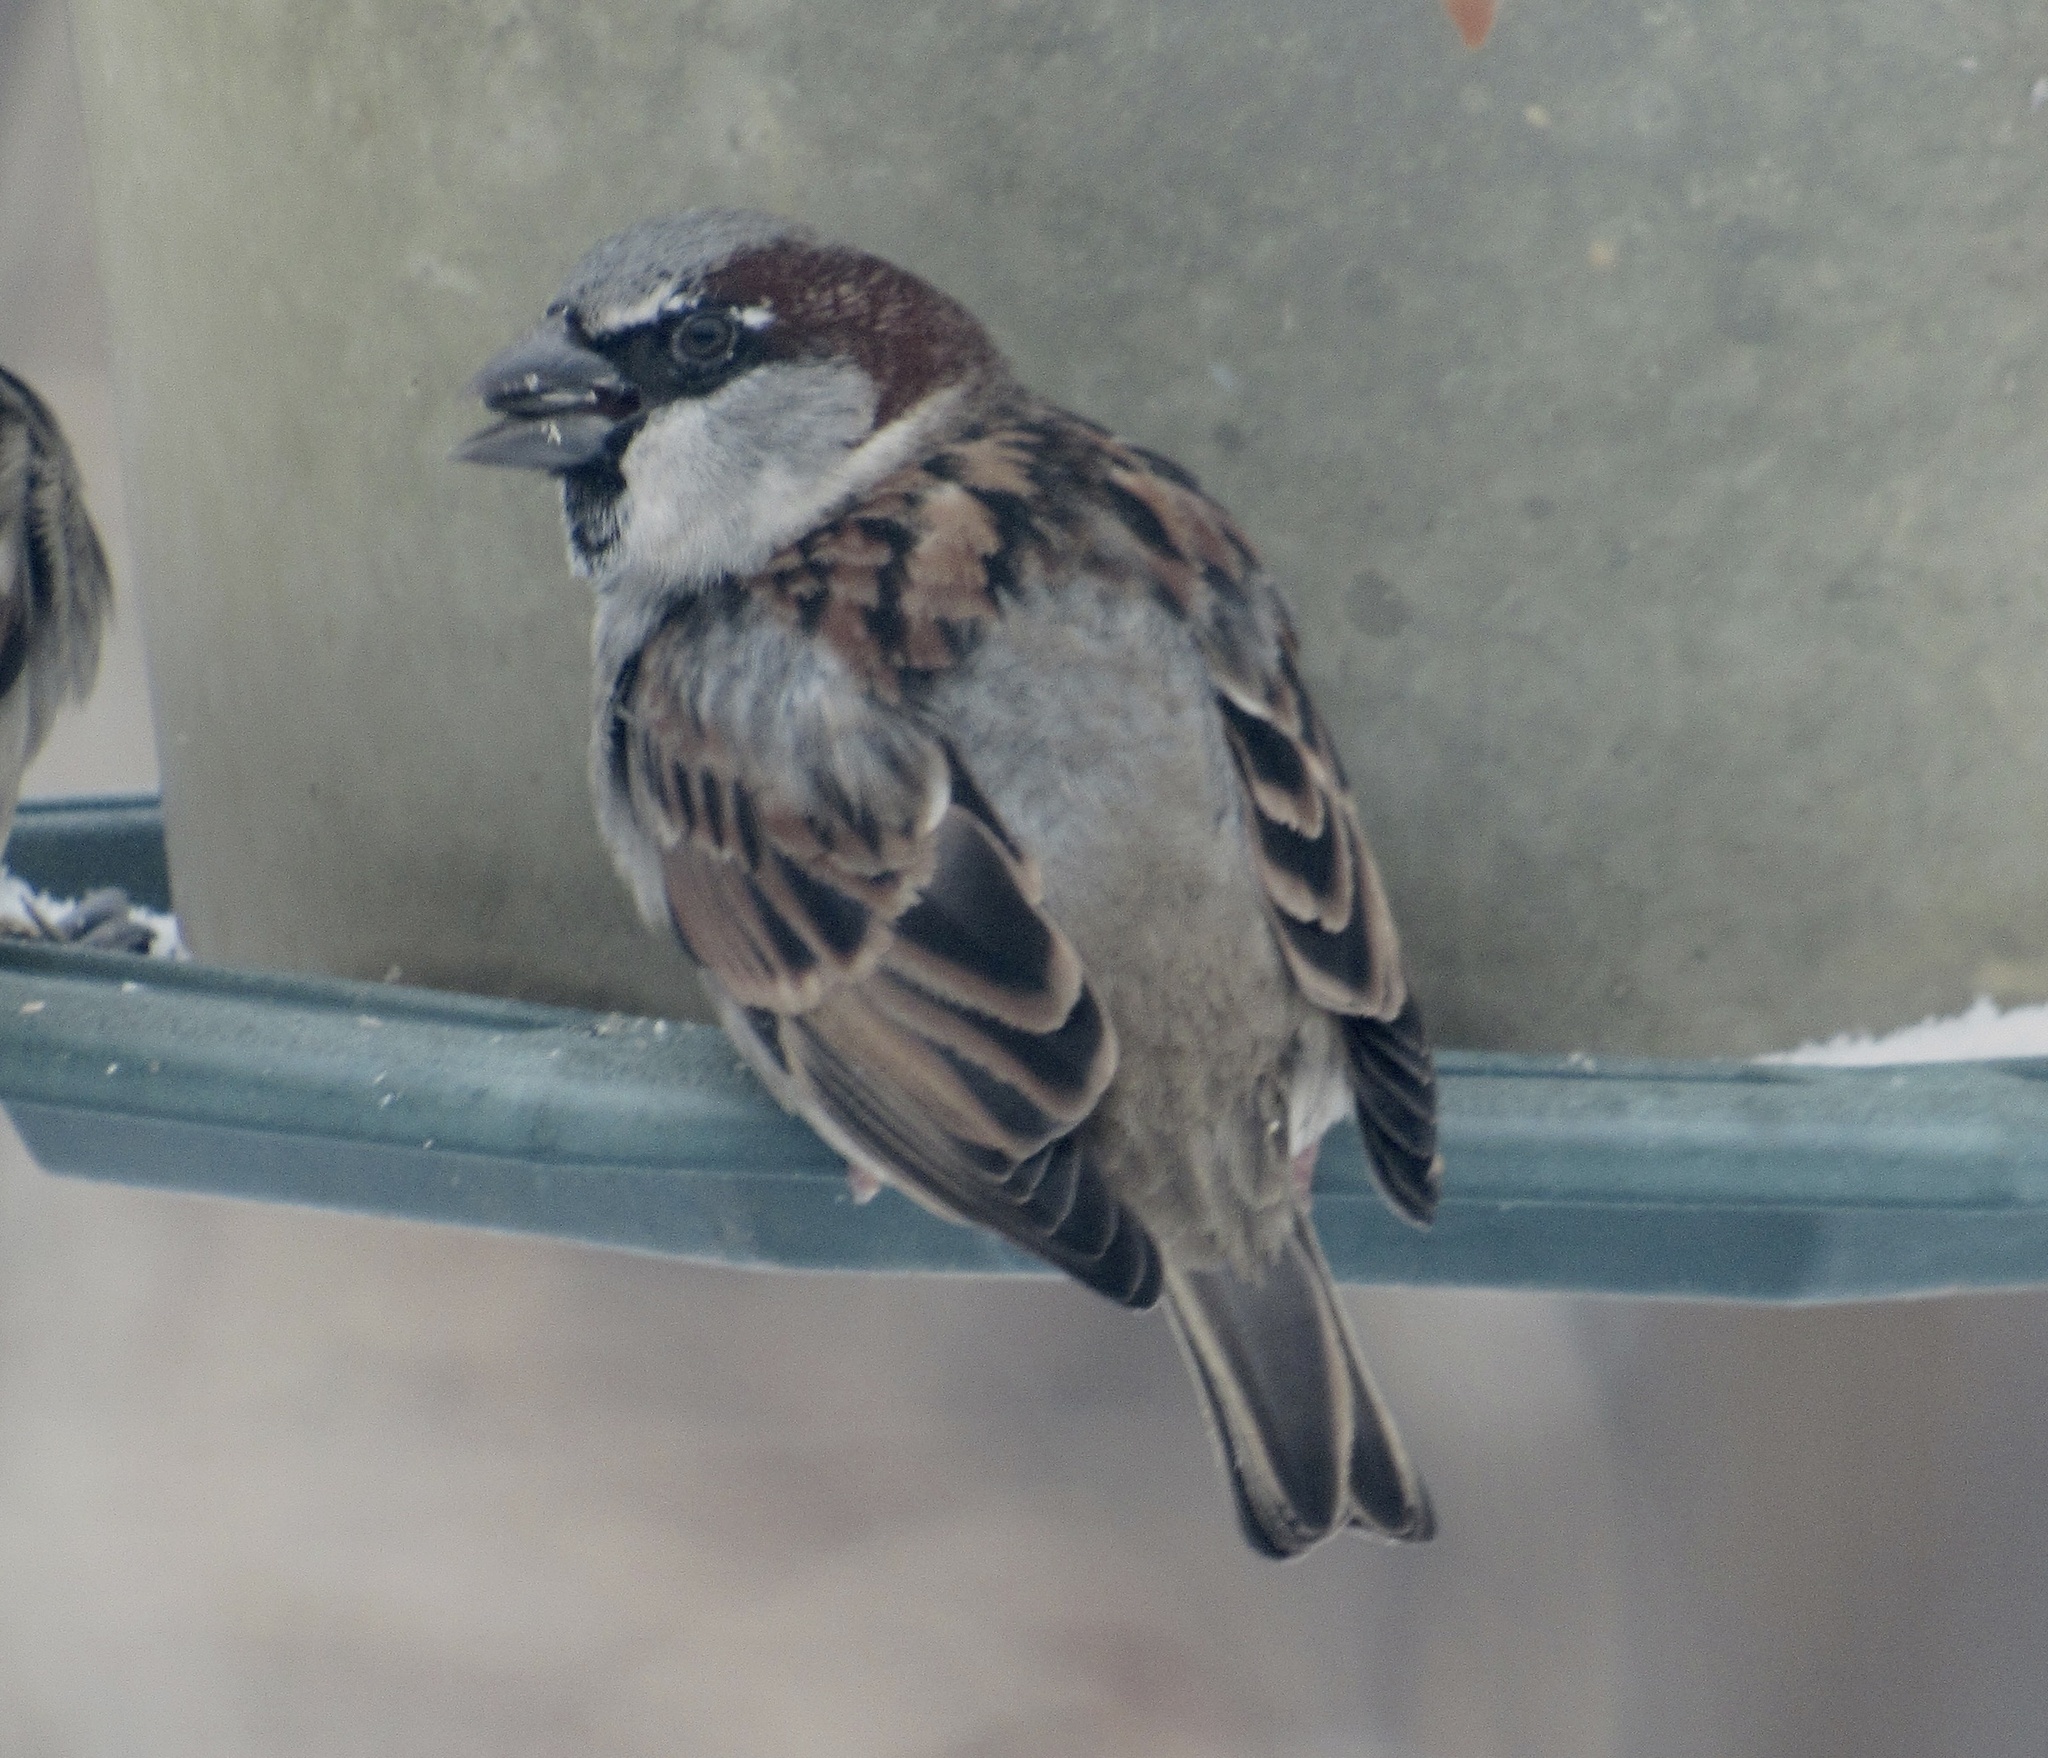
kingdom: Animalia
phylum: Chordata
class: Aves
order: Passeriformes
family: Passeridae
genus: Passer
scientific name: Passer domesticus
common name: House sparrow
